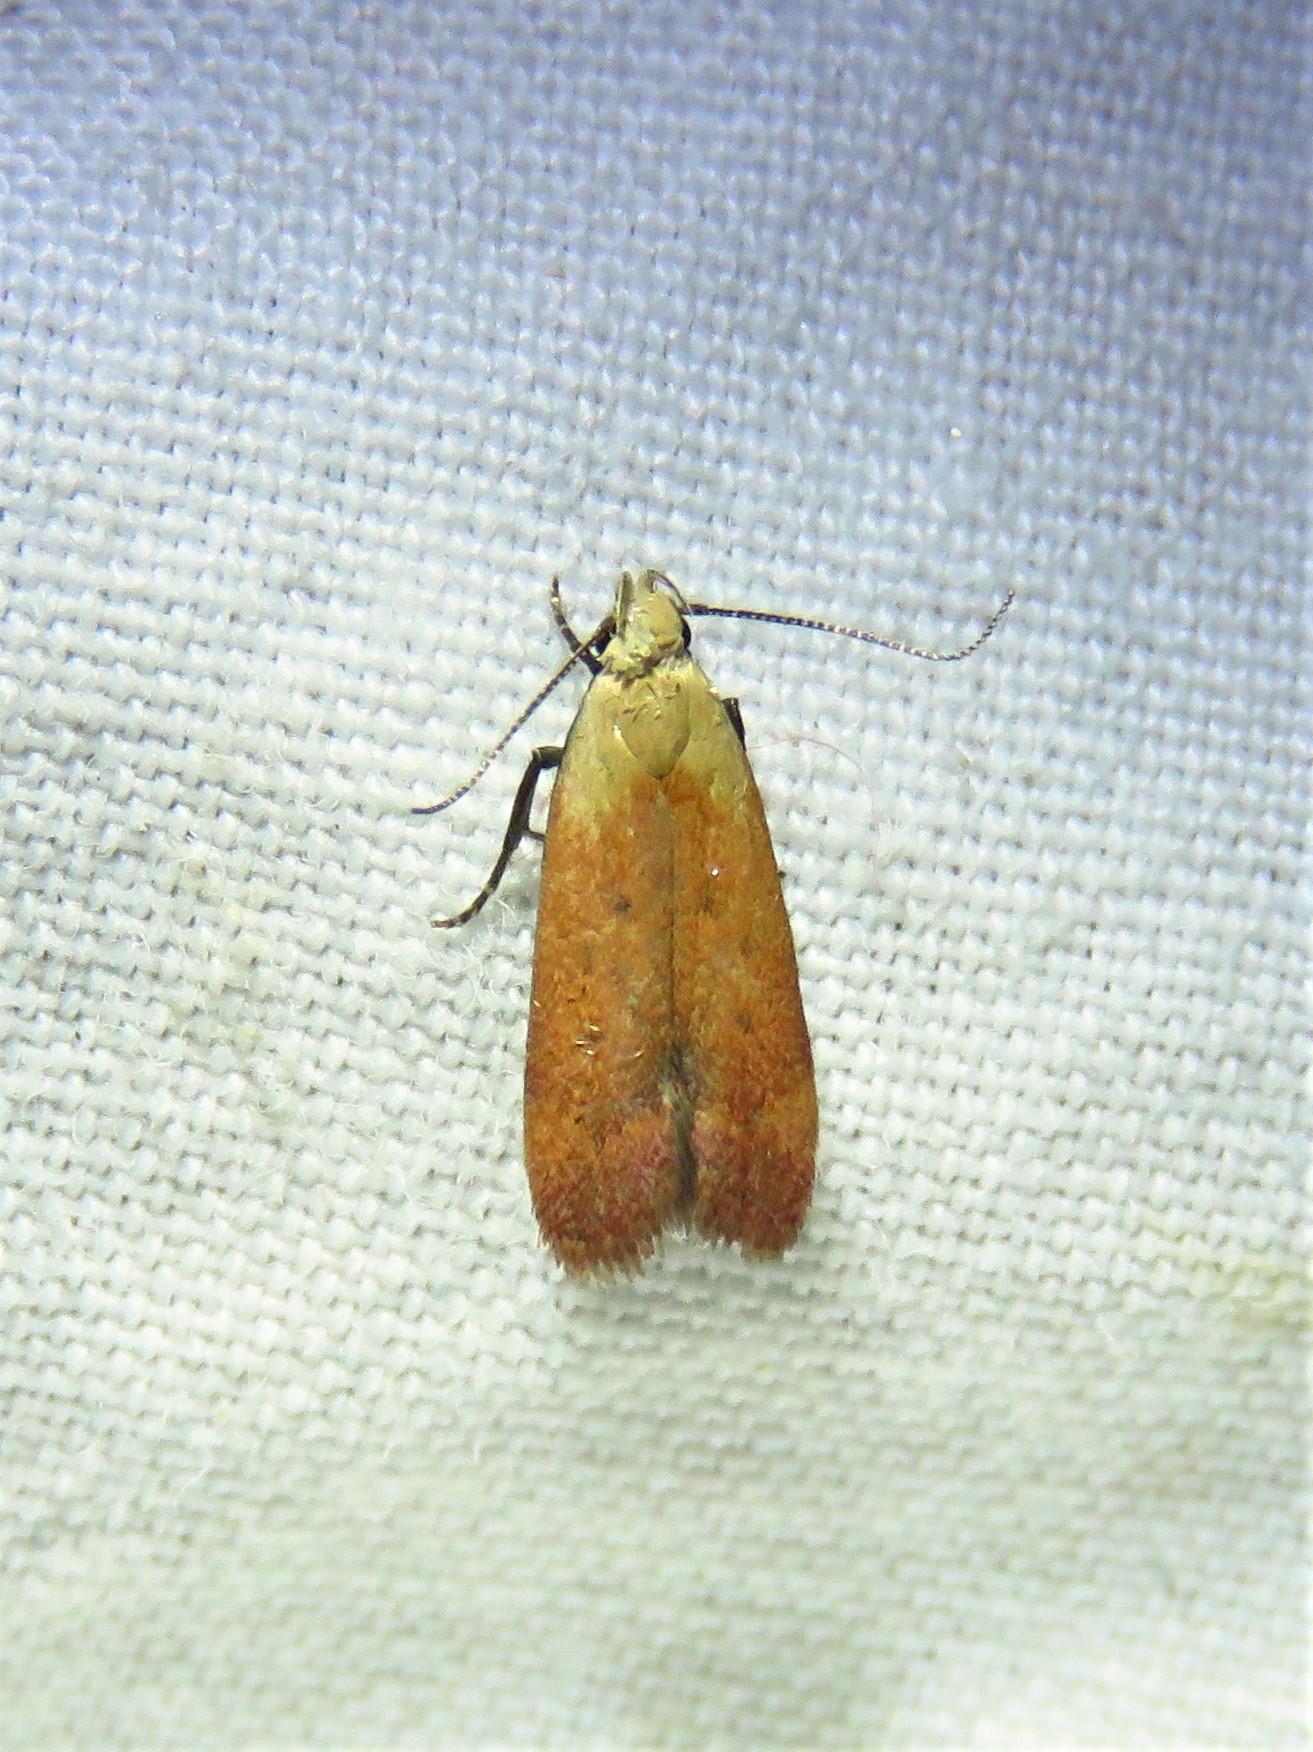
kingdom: Animalia
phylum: Arthropoda
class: Insecta
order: Lepidoptera
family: Gelechiidae
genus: Anacampsis
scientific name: Anacampsis fullonella
